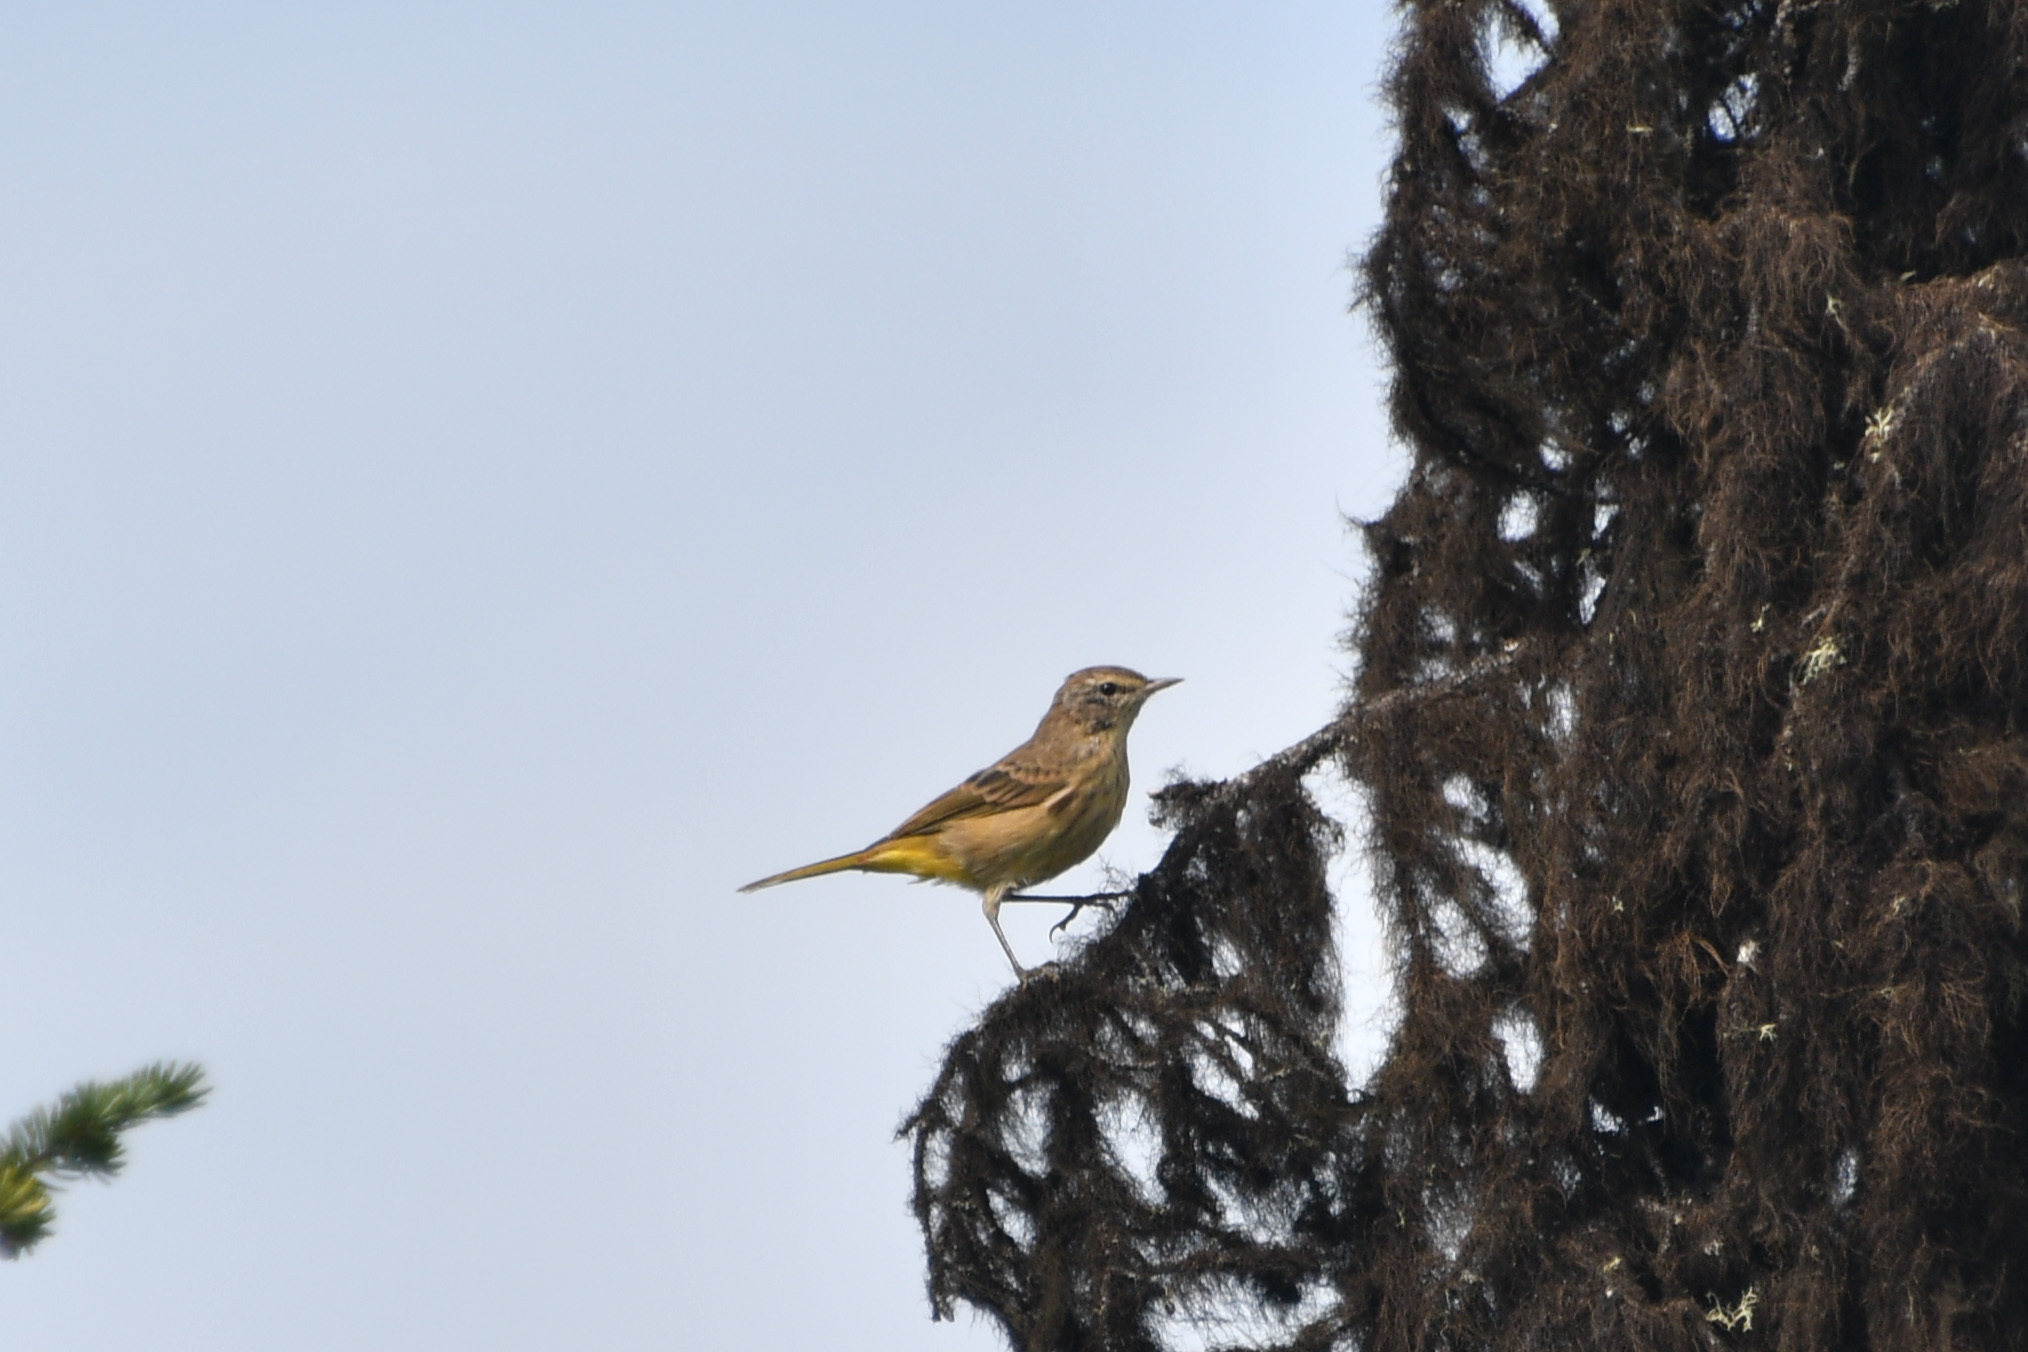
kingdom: Animalia
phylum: Chordata
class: Aves
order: Passeriformes
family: Parulidae
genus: Setophaga
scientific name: Setophaga palmarum
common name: Palm warbler
